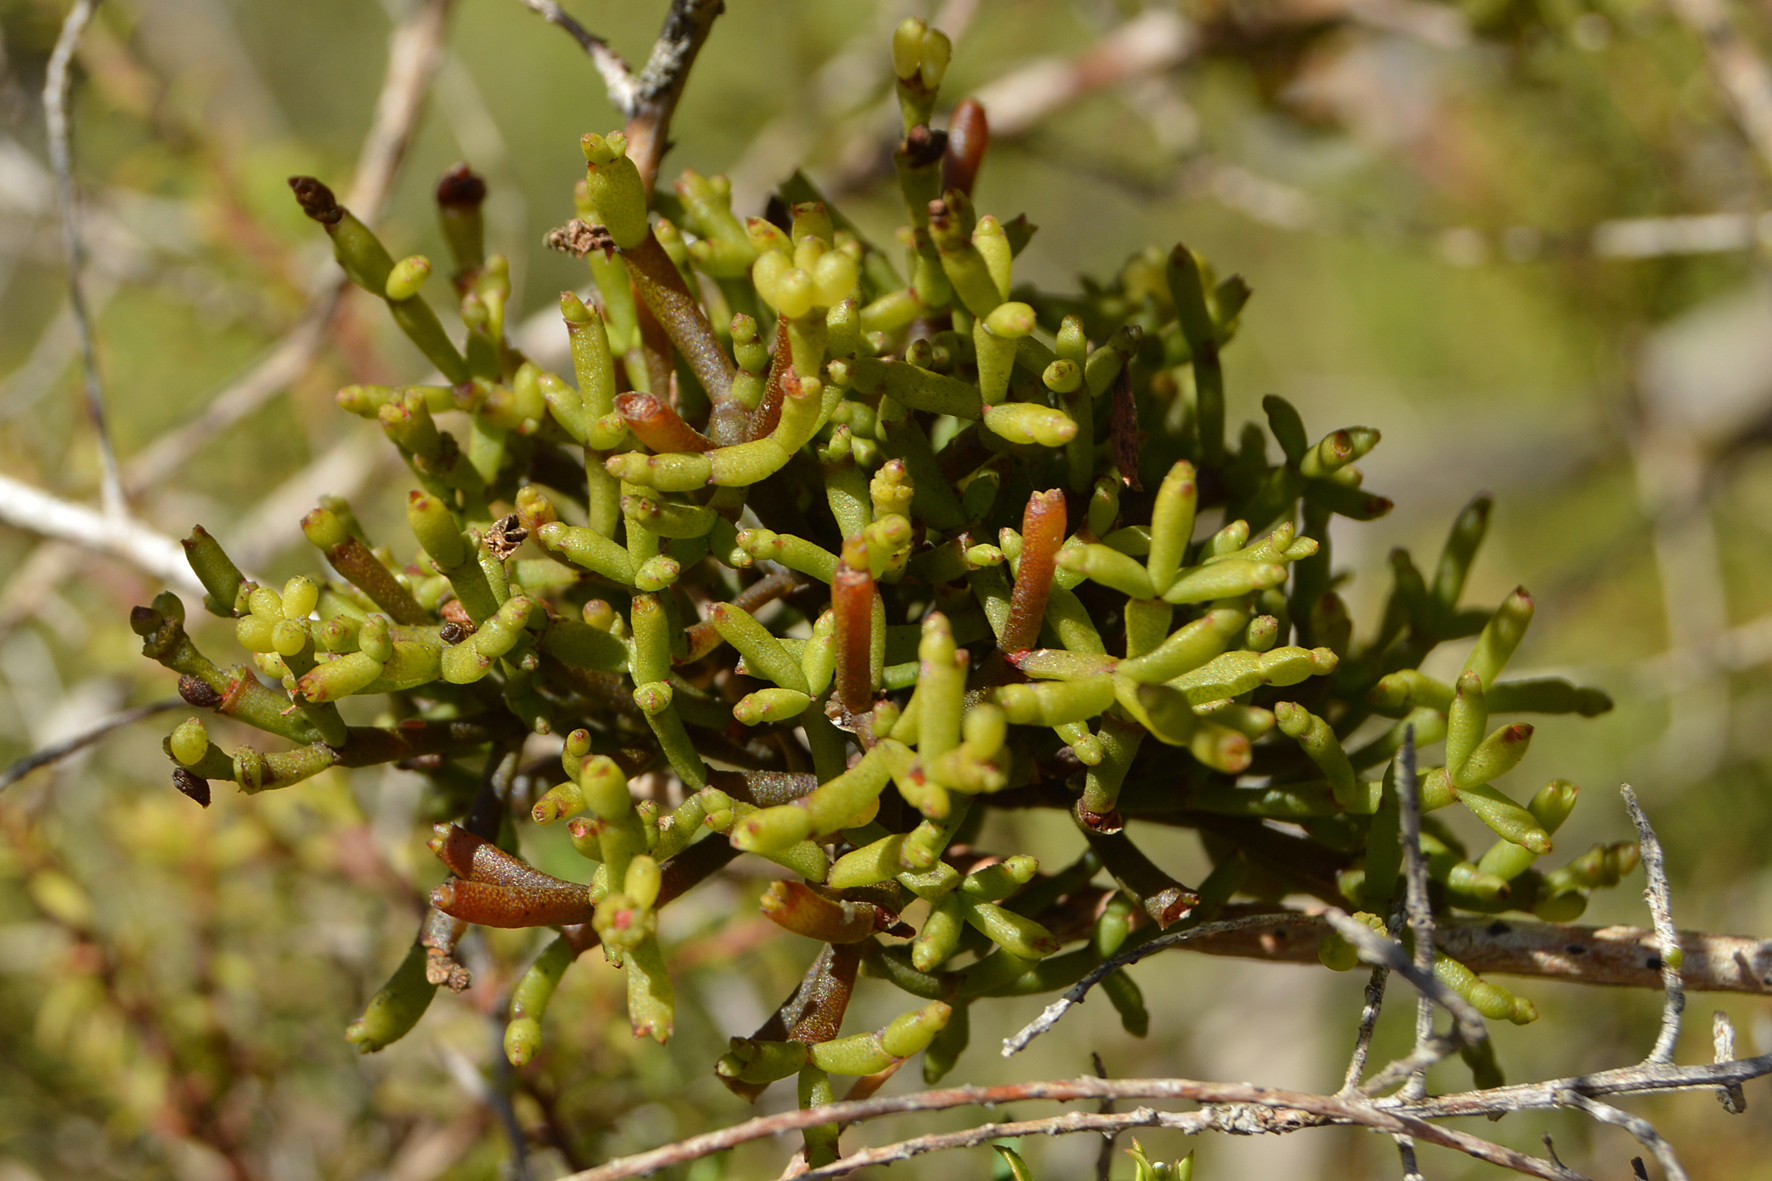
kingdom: Plantae
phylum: Tracheophyta
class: Magnoliopsida
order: Santalales
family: Viscaceae
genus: Korthalsella
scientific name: Korthalsella salicornioides
